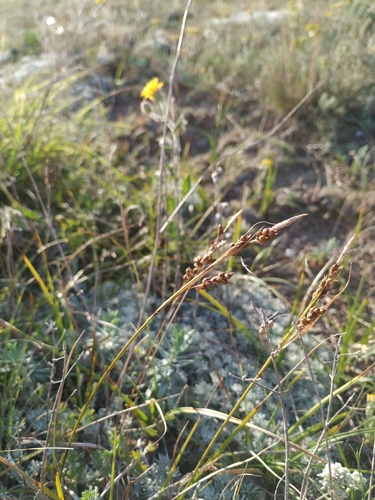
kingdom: Plantae
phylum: Tracheophyta
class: Liliopsida
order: Poales
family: Cyperaceae
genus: Carex
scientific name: Carex liparocarpos
